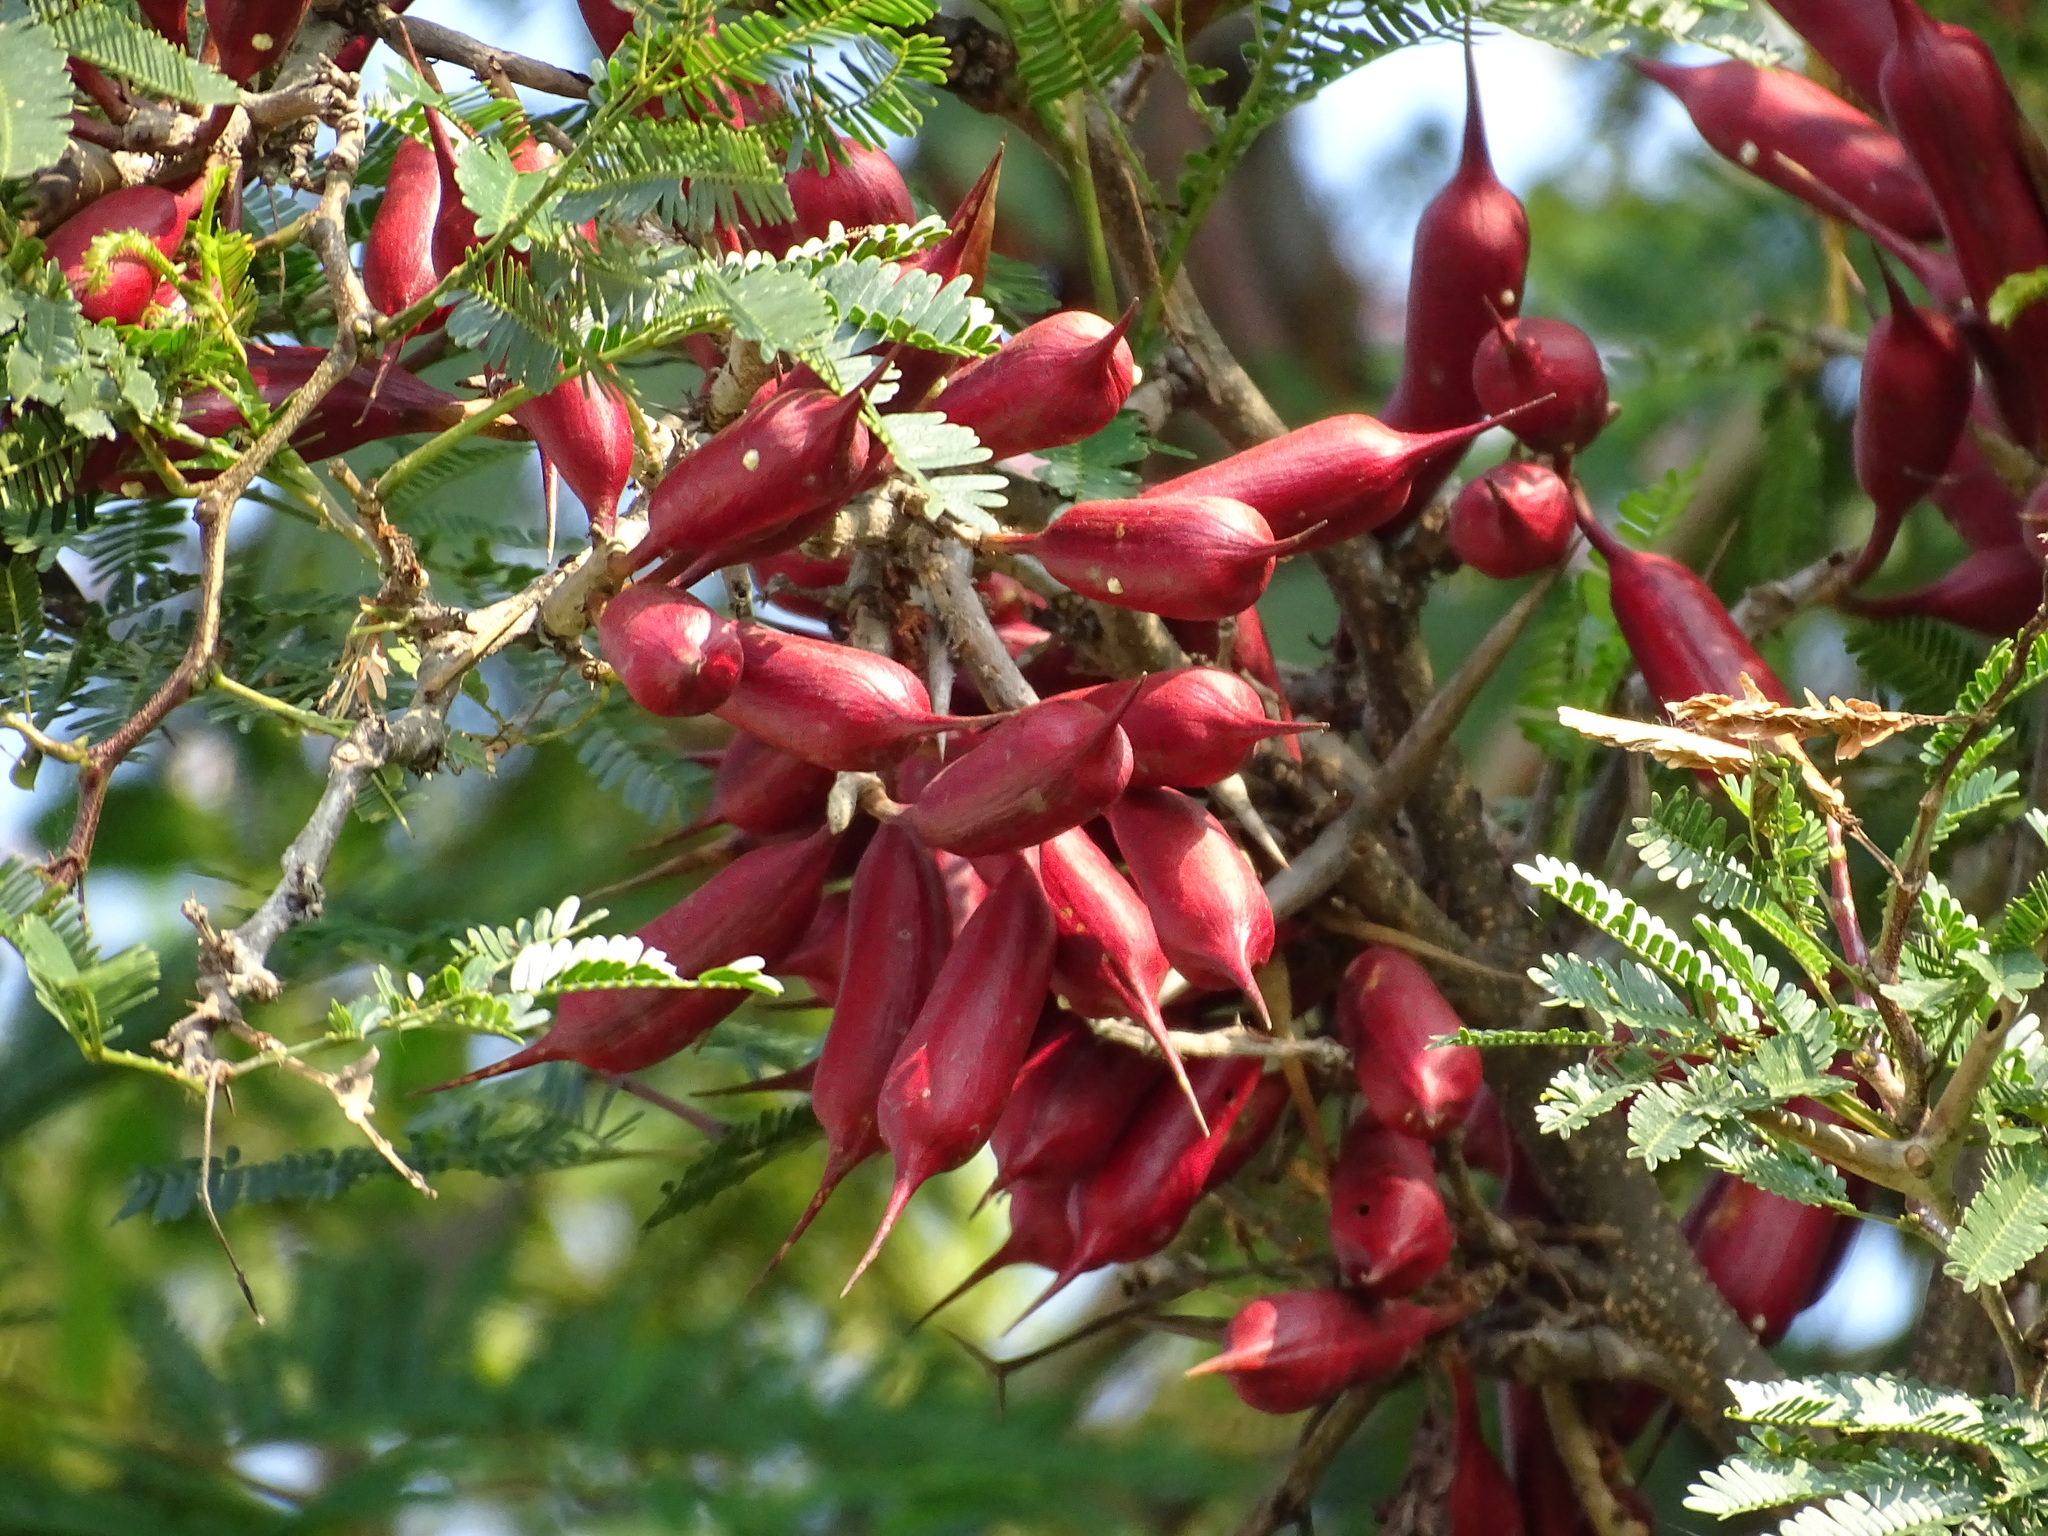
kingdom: Plantae
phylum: Tracheophyta
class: Magnoliopsida
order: Fabales
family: Fabaceae
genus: Vachellia
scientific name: Vachellia cornigera
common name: Bullhorn wattle
